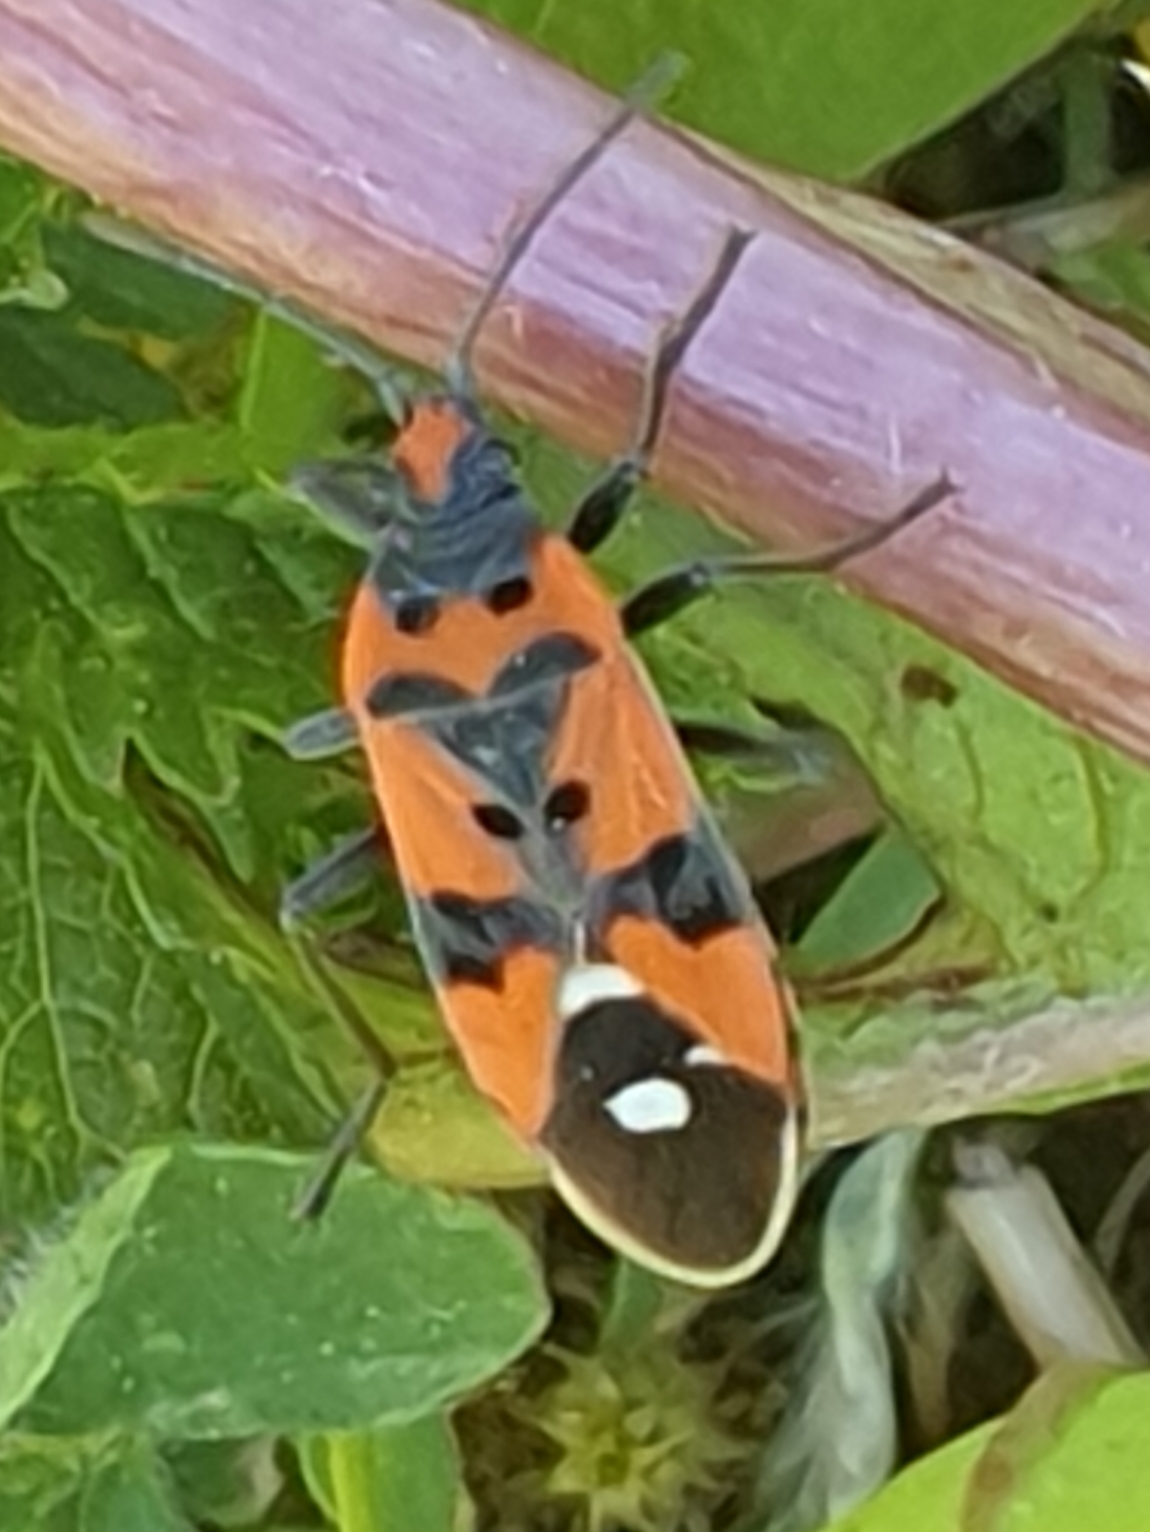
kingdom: Animalia
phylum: Arthropoda
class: Insecta
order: Hemiptera
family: Lygaeidae
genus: Lygaeus
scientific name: Lygaeus equestris
